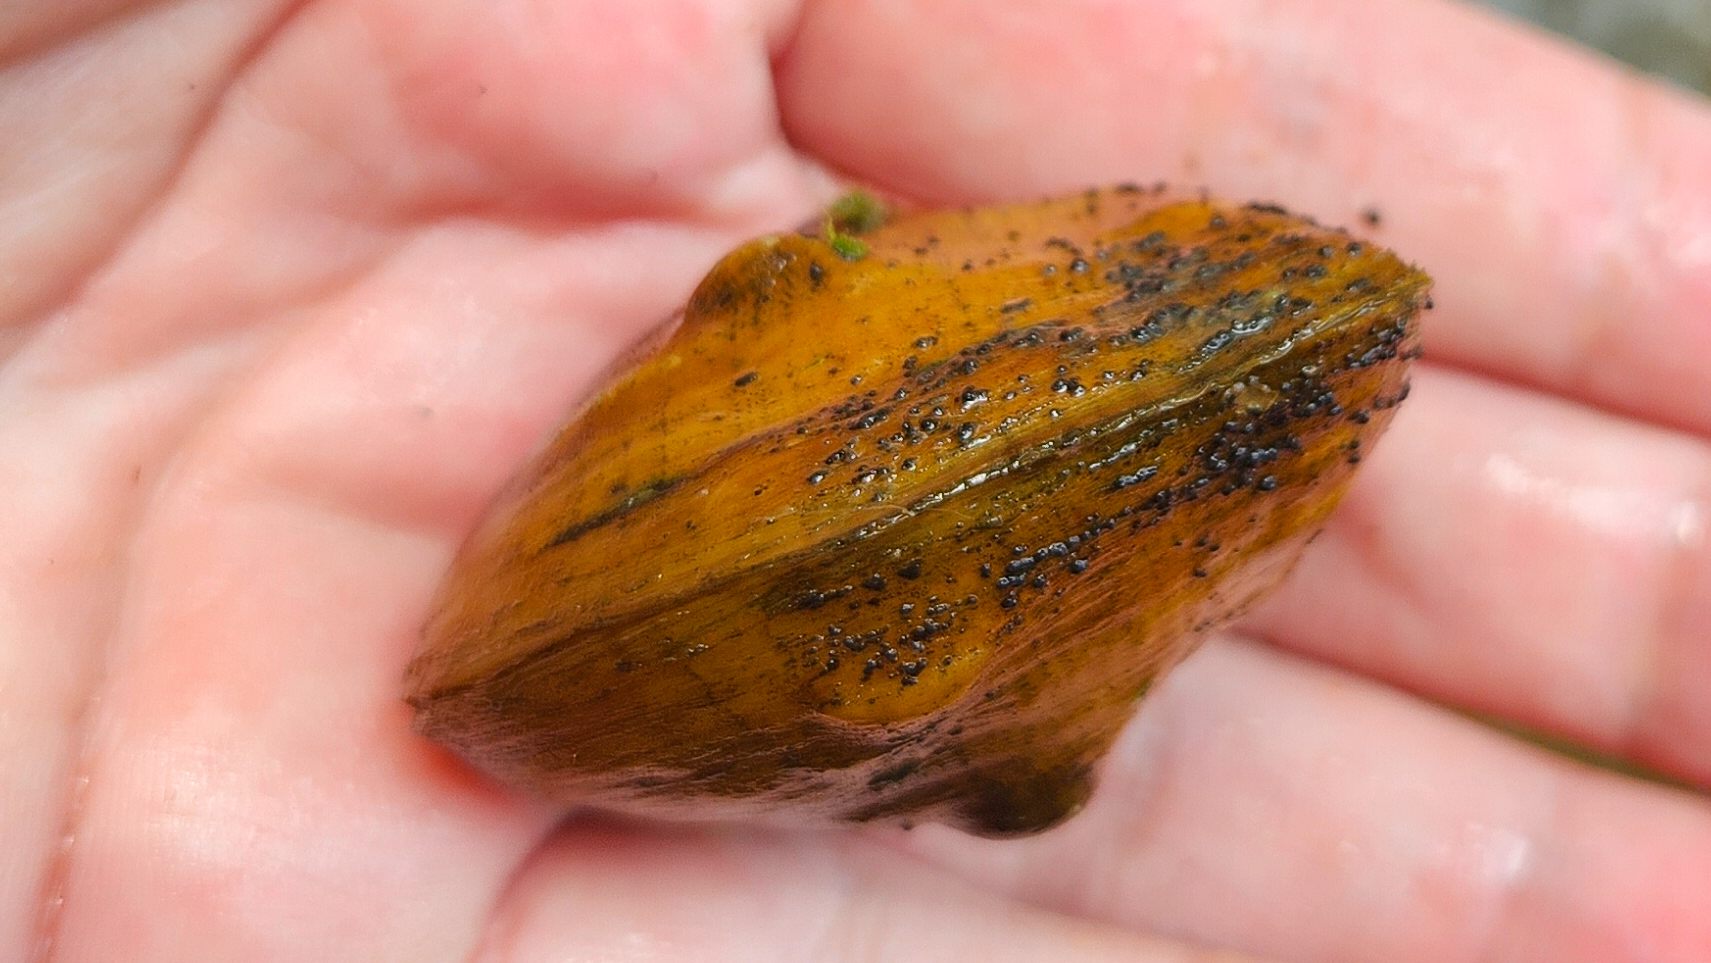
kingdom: Animalia
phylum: Mollusca
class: Bivalvia
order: Unionida
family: Unionidae
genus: Obliquaria
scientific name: Obliquaria reflexa
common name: Threehorn wartyback
